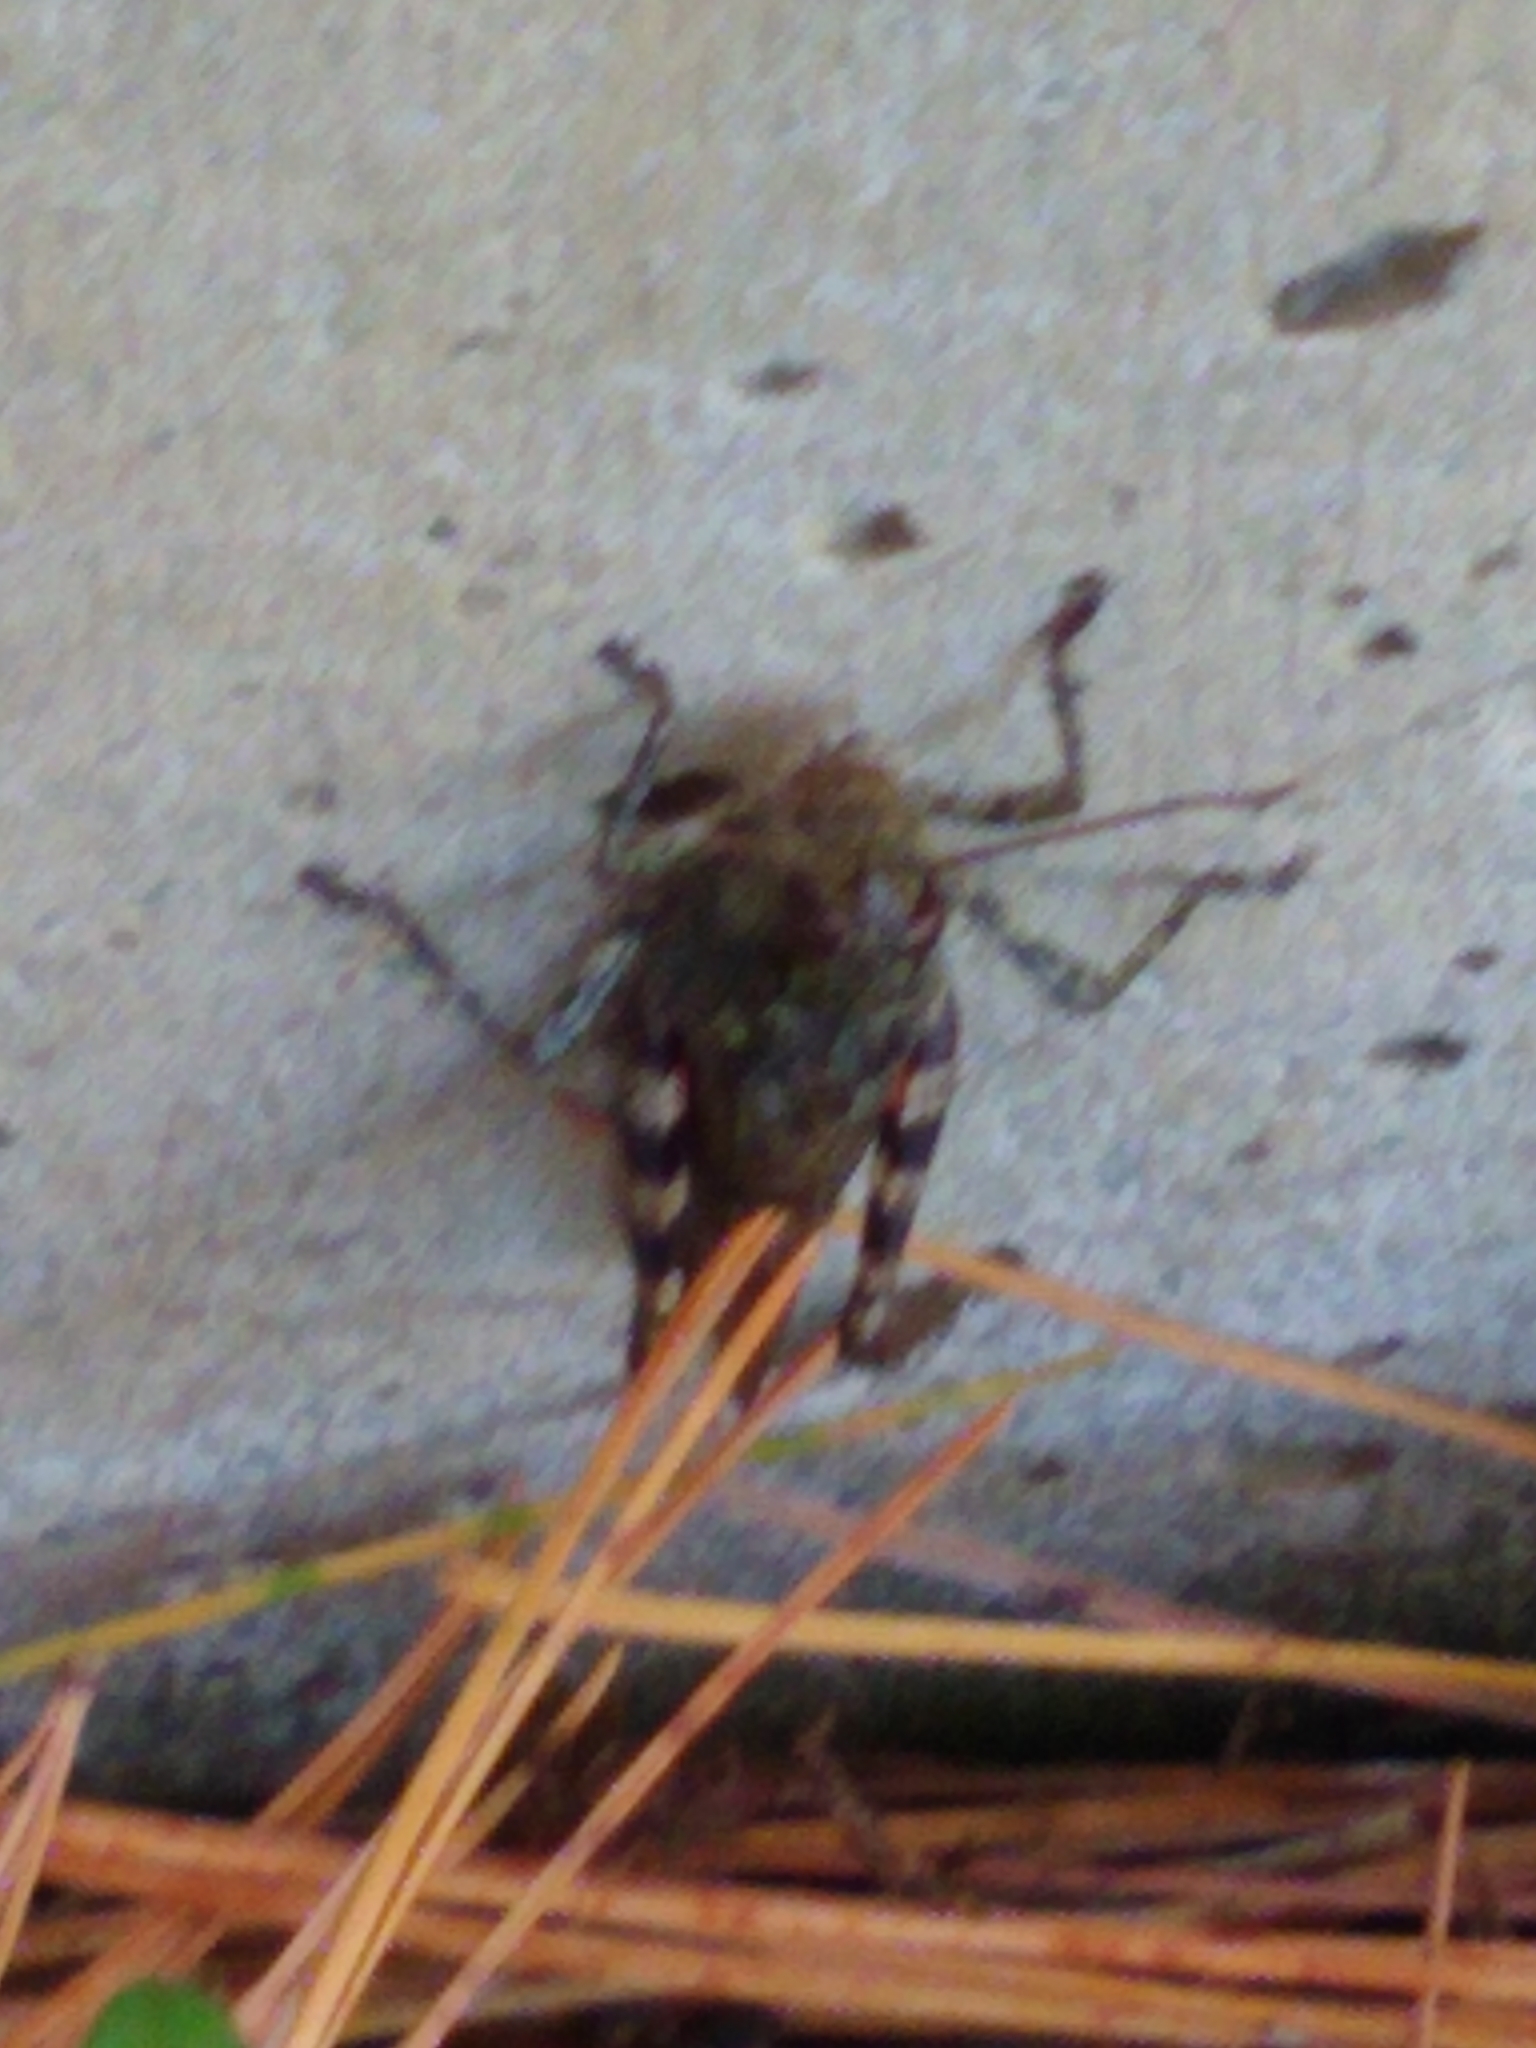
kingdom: Animalia
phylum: Arthropoda
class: Insecta
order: Orthoptera
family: Acrididae
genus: Melanoplus
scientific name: Melanoplus punctulatus
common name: Pine-tree spur-throat grasshopper
